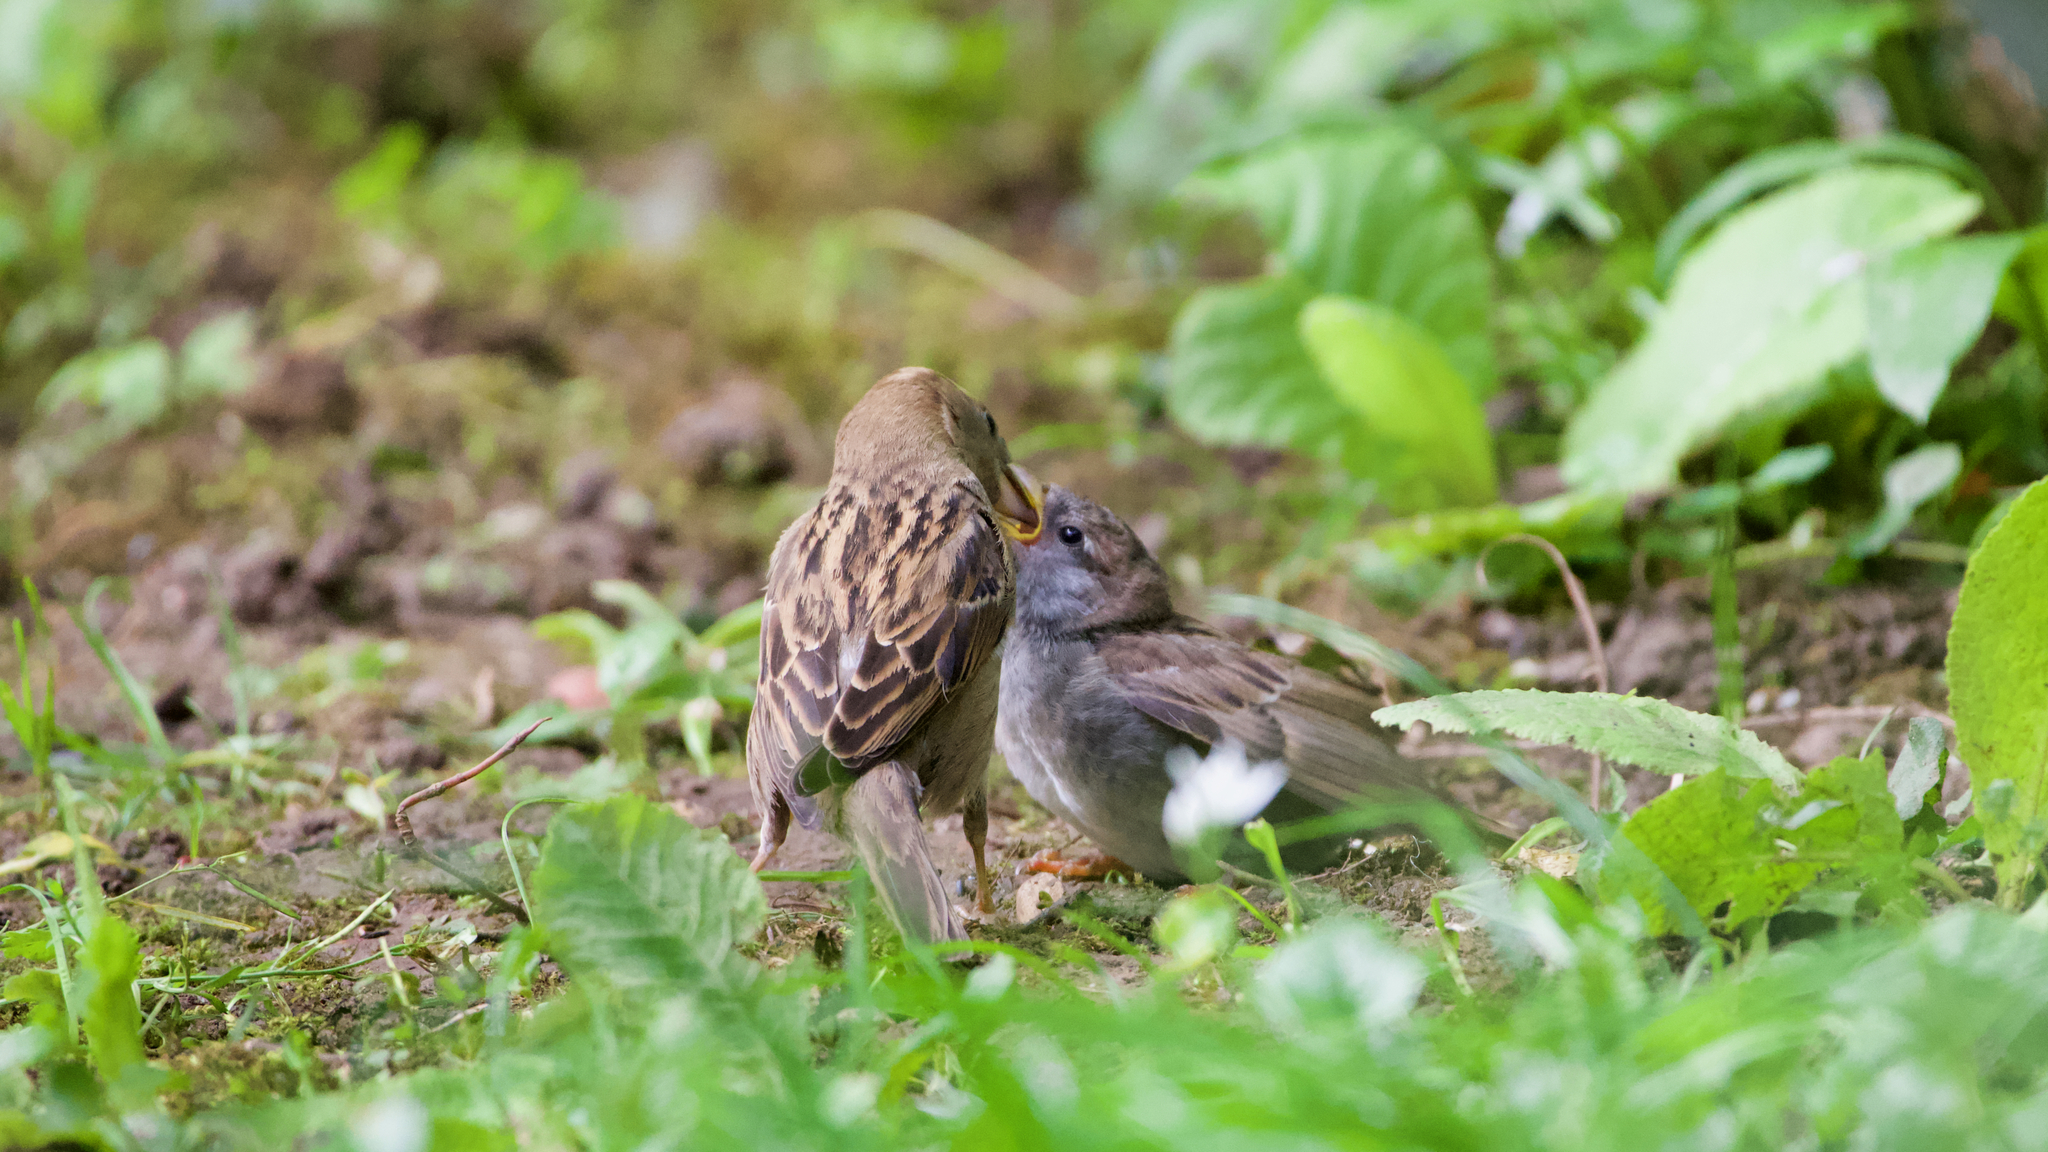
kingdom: Animalia
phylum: Chordata
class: Aves
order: Passeriformes
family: Passeridae
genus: Passer
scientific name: Passer domesticus
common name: House sparrow
